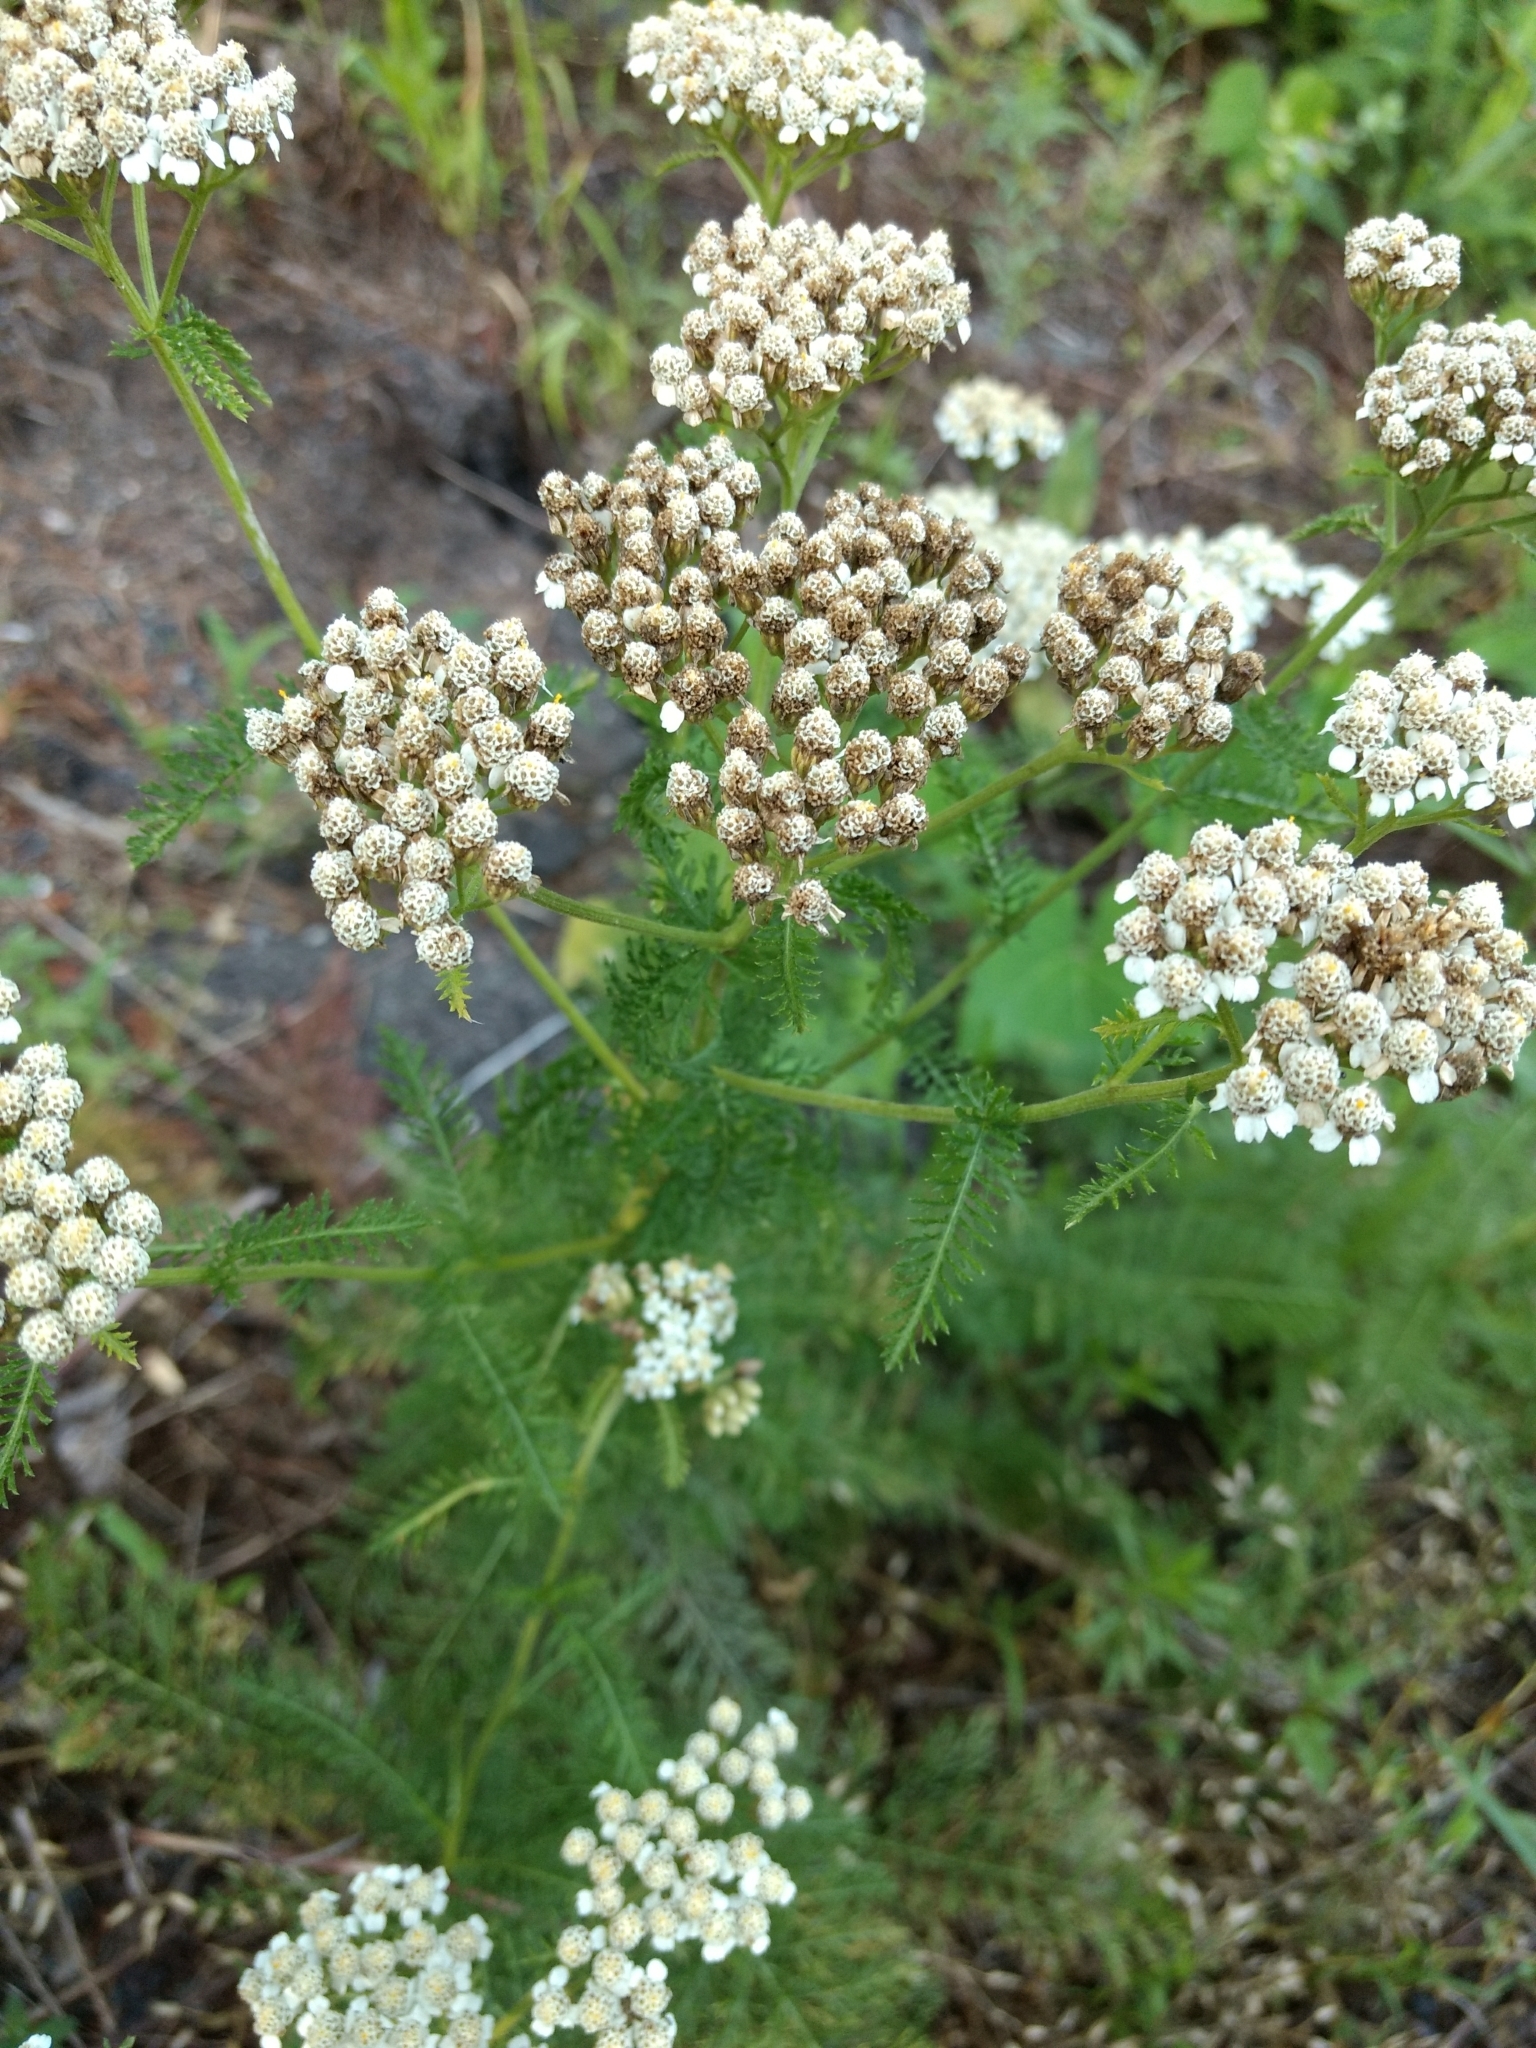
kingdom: Plantae
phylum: Tracheophyta
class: Magnoliopsida
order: Asterales
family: Asteraceae
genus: Achillea
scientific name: Achillea millefolium
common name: Yarrow
